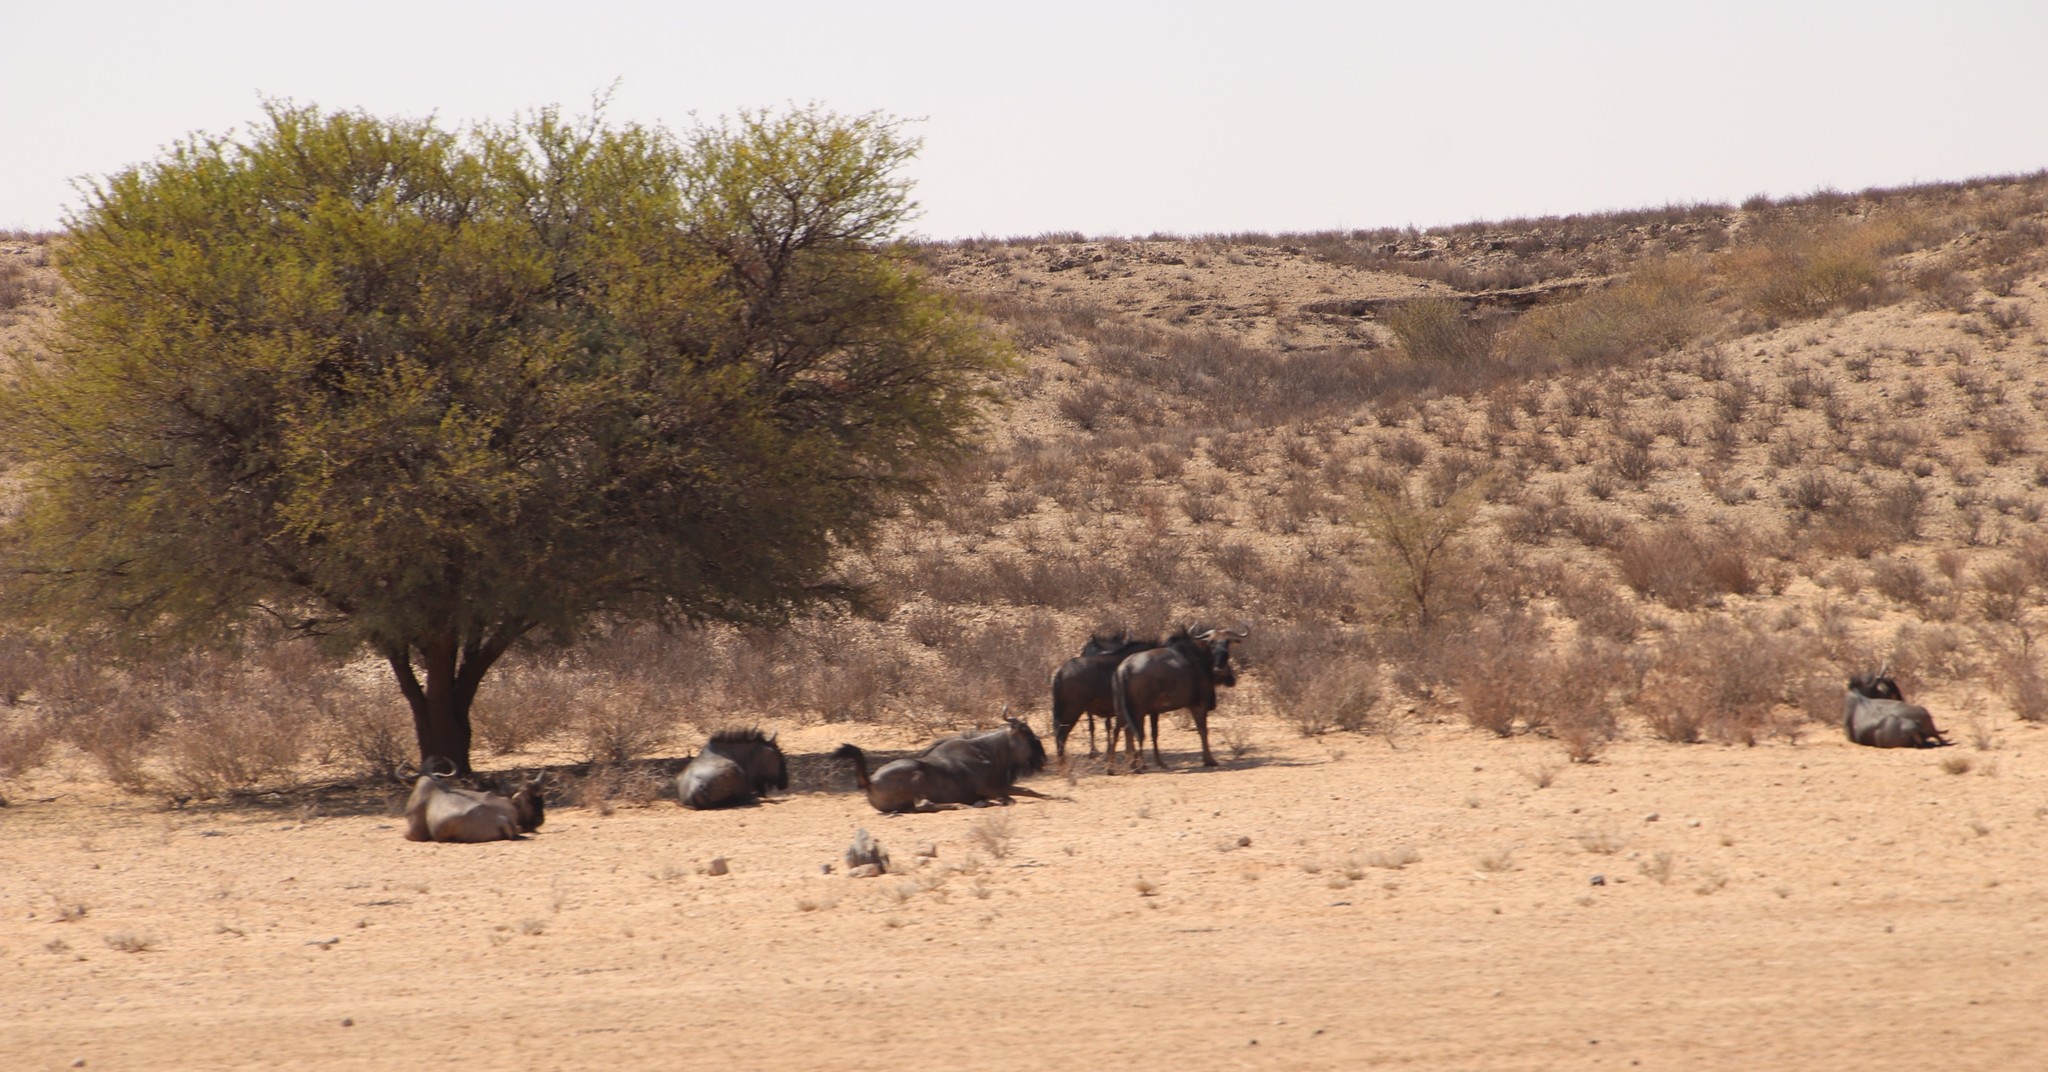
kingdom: Animalia
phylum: Chordata
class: Mammalia
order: Artiodactyla
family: Bovidae
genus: Connochaetes
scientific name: Connochaetes taurinus
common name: Blue wildebeest
